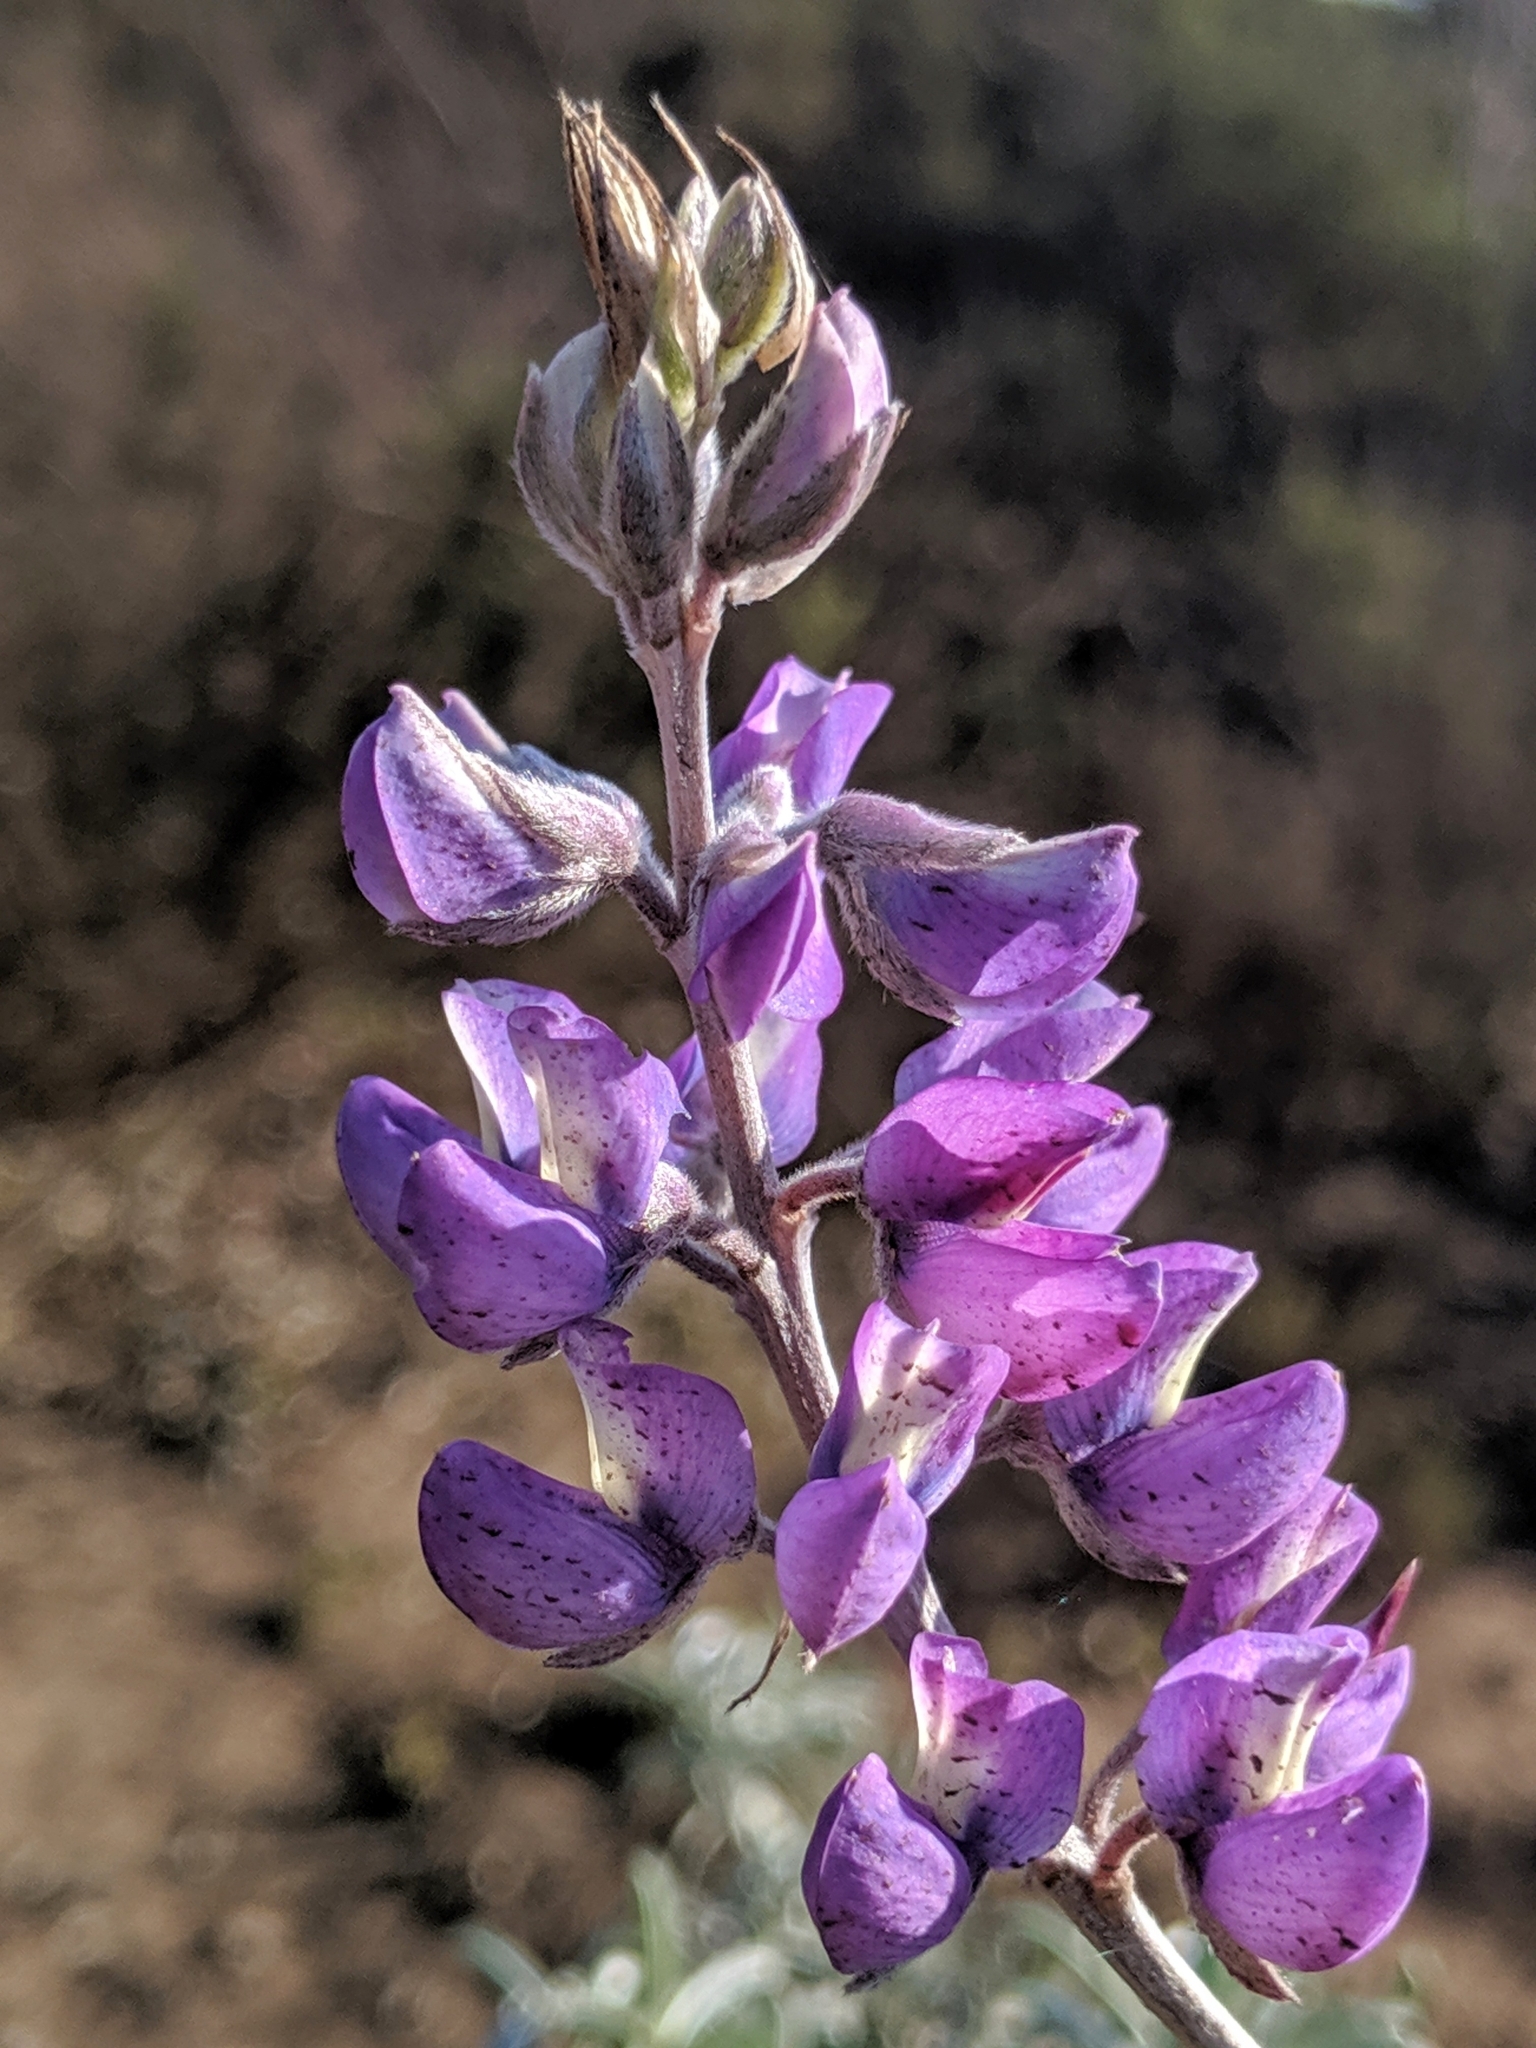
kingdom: Plantae
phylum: Tracheophyta
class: Magnoliopsida
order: Fabales
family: Fabaceae
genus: Lupinus
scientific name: Lupinus chamissonis
